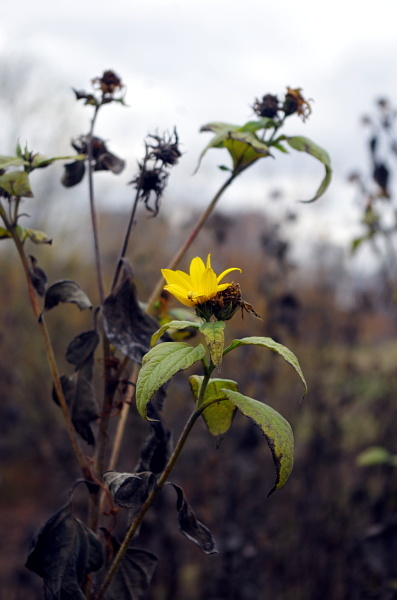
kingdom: Plantae
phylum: Tracheophyta
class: Magnoliopsida
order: Asterales
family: Asteraceae
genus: Helianthus
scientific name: Helianthus tuberosus
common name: Jerusalem artichoke
